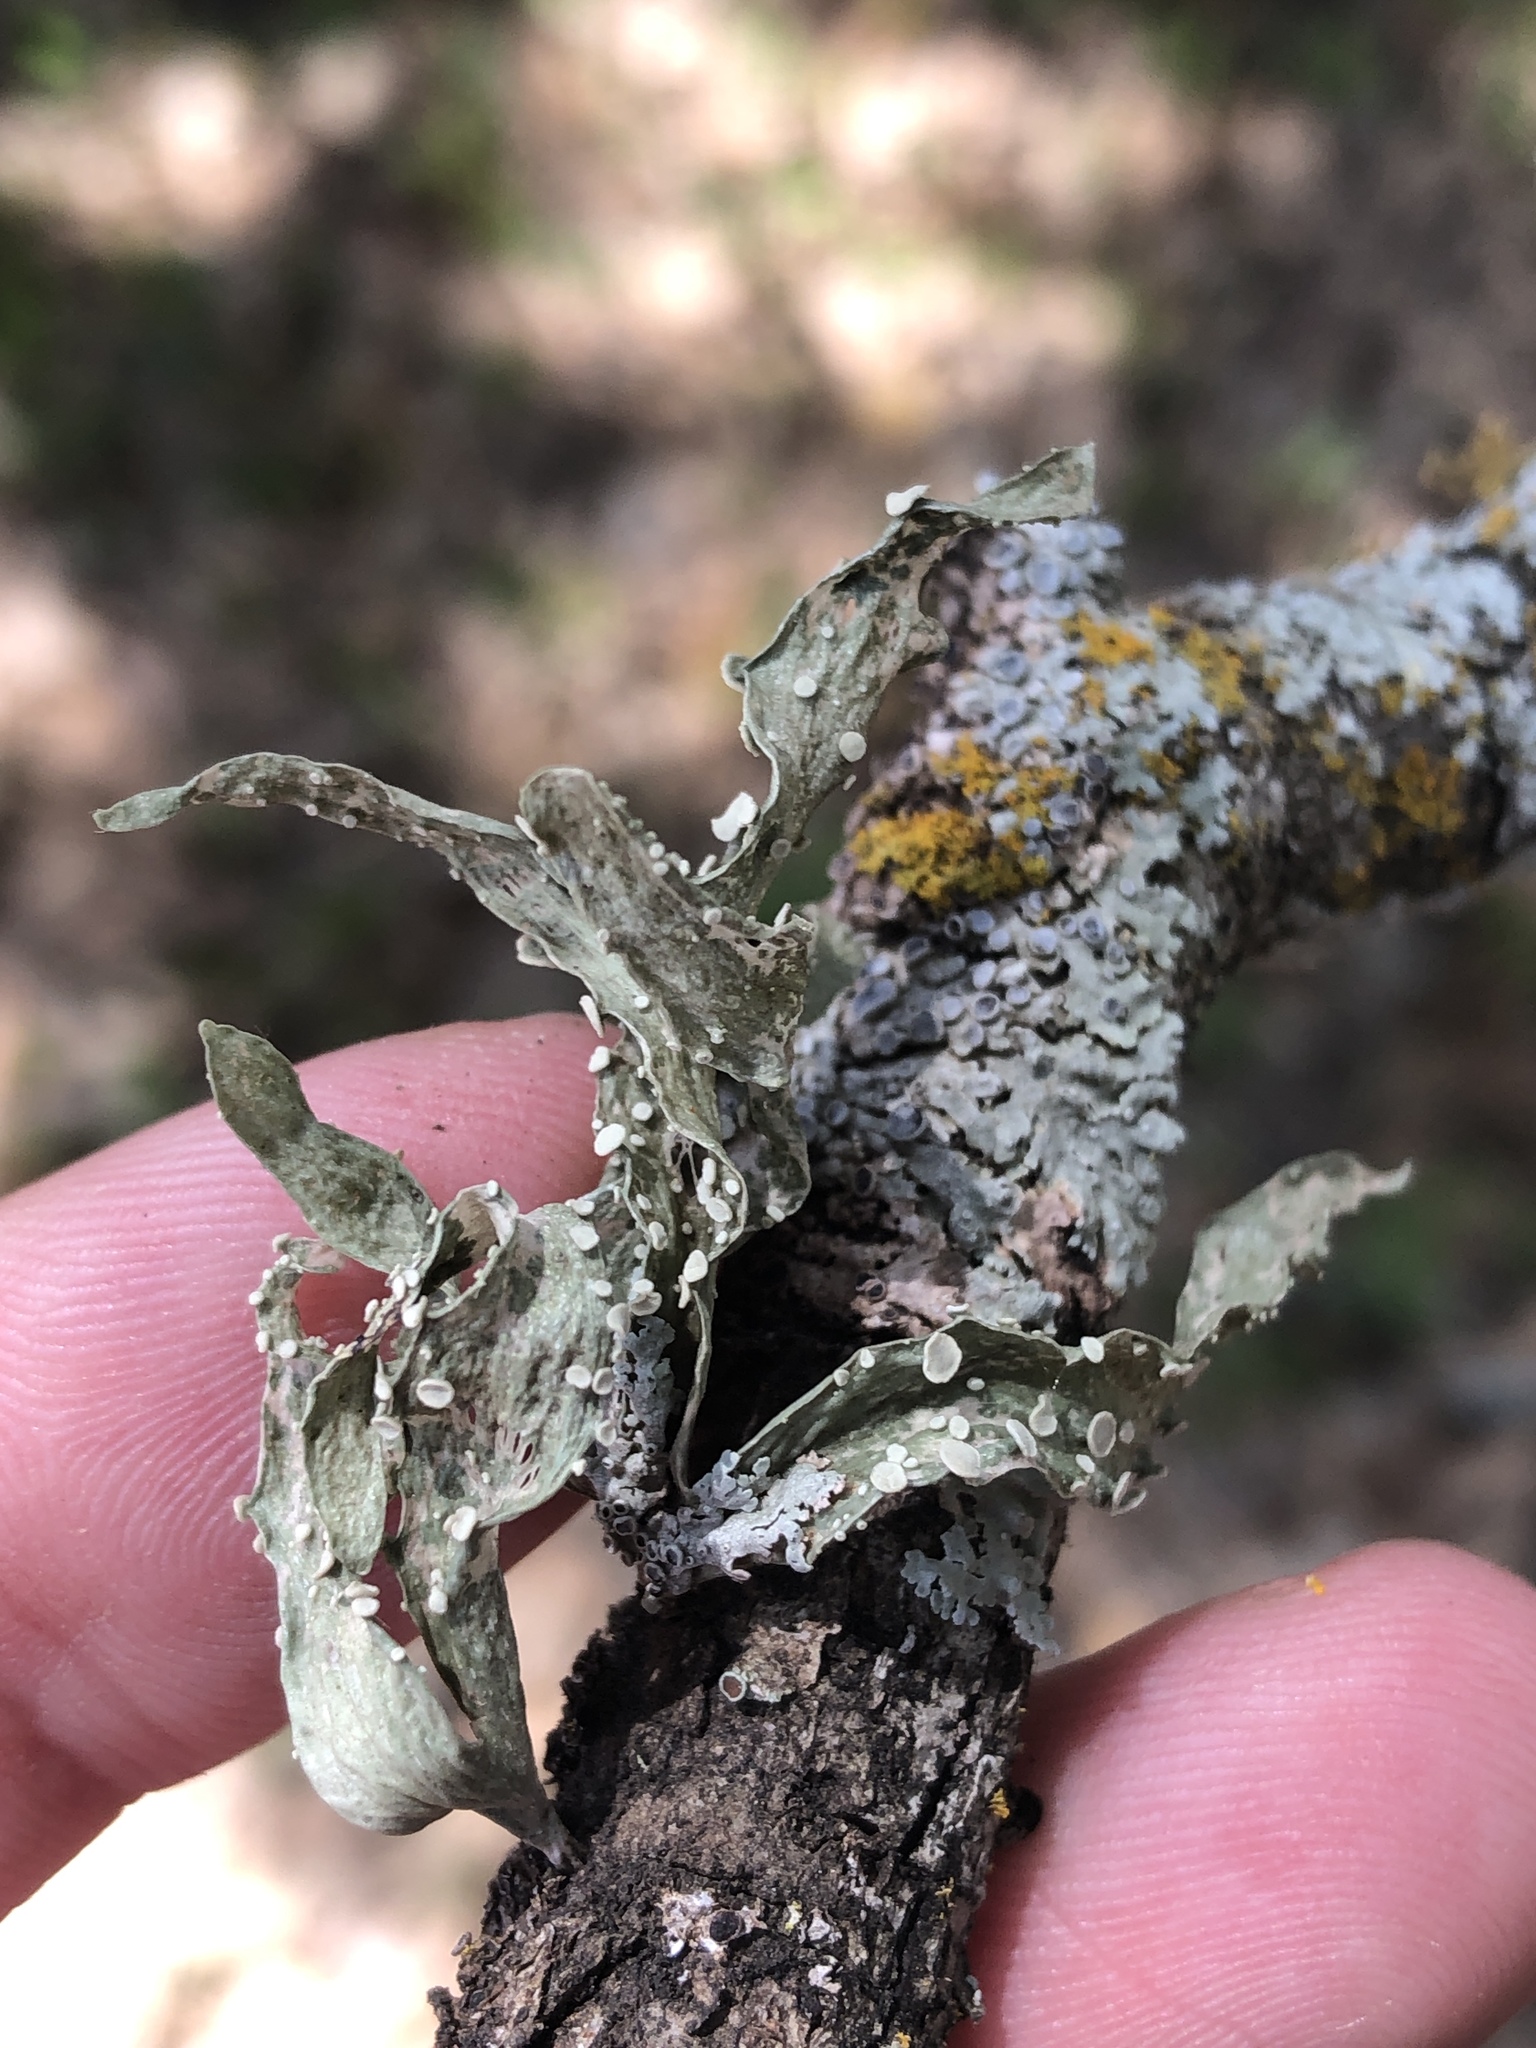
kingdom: Fungi
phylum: Ascomycota
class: Lecanoromycetes
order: Lecanorales
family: Ramalinaceae
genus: Ramalina
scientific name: Ramalina celastri
